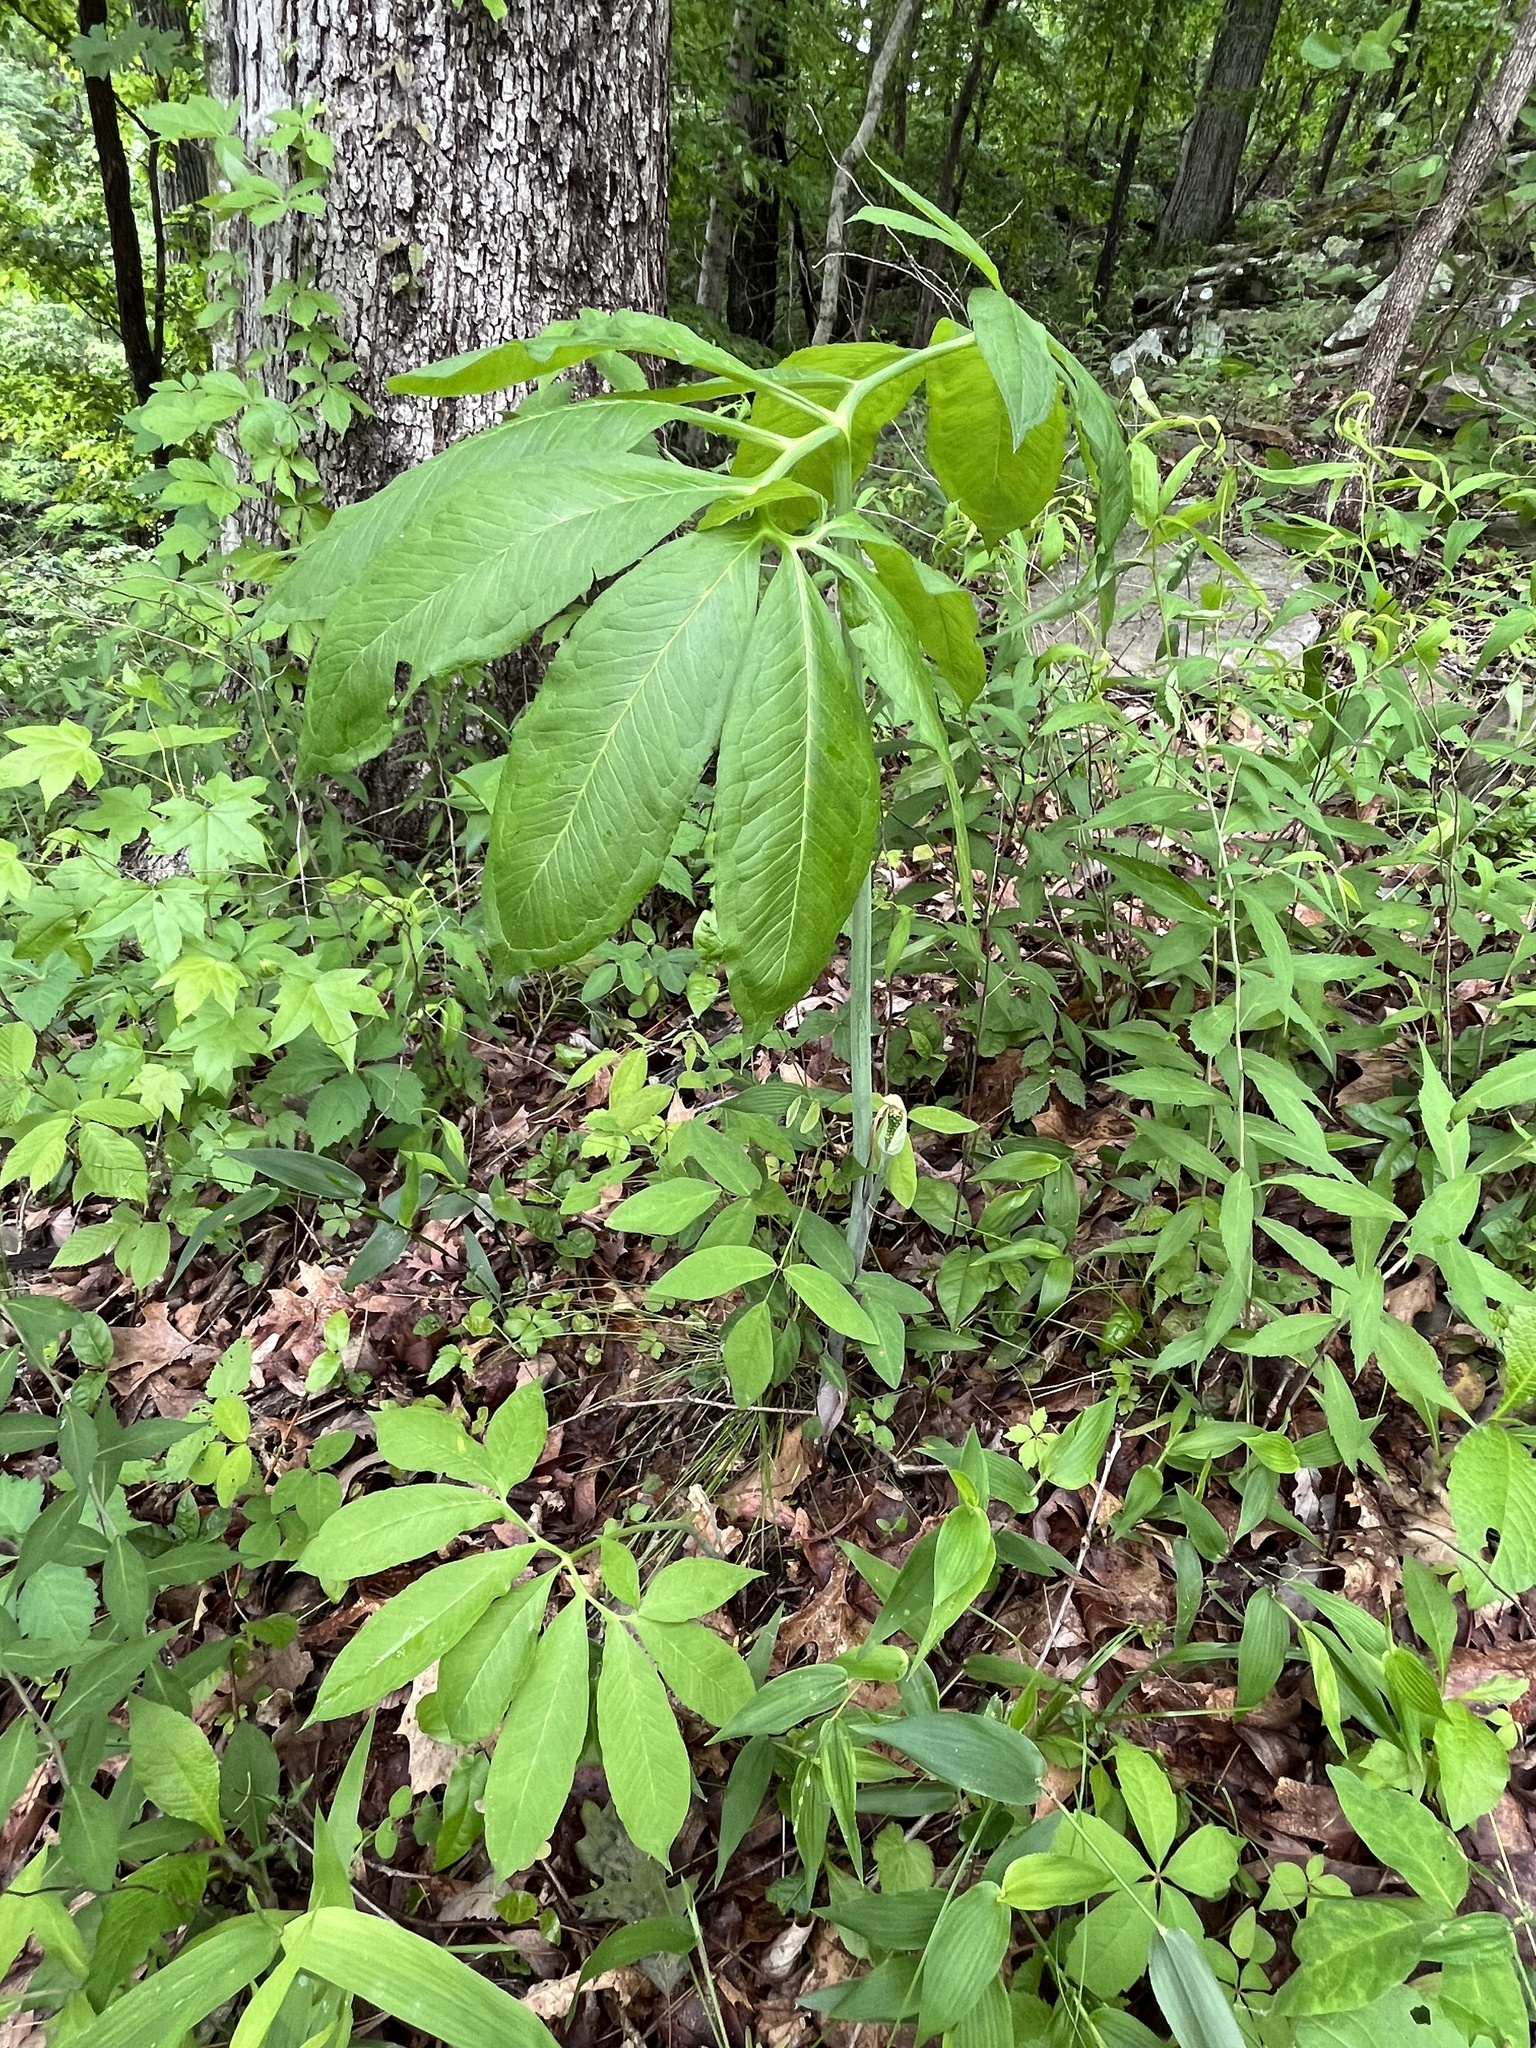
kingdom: Plantae
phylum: Tracheophyta
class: Liliopsida
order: Alismatales
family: Araceae
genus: Arisaema
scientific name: Arisaema dracontium
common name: Dragon-arum
